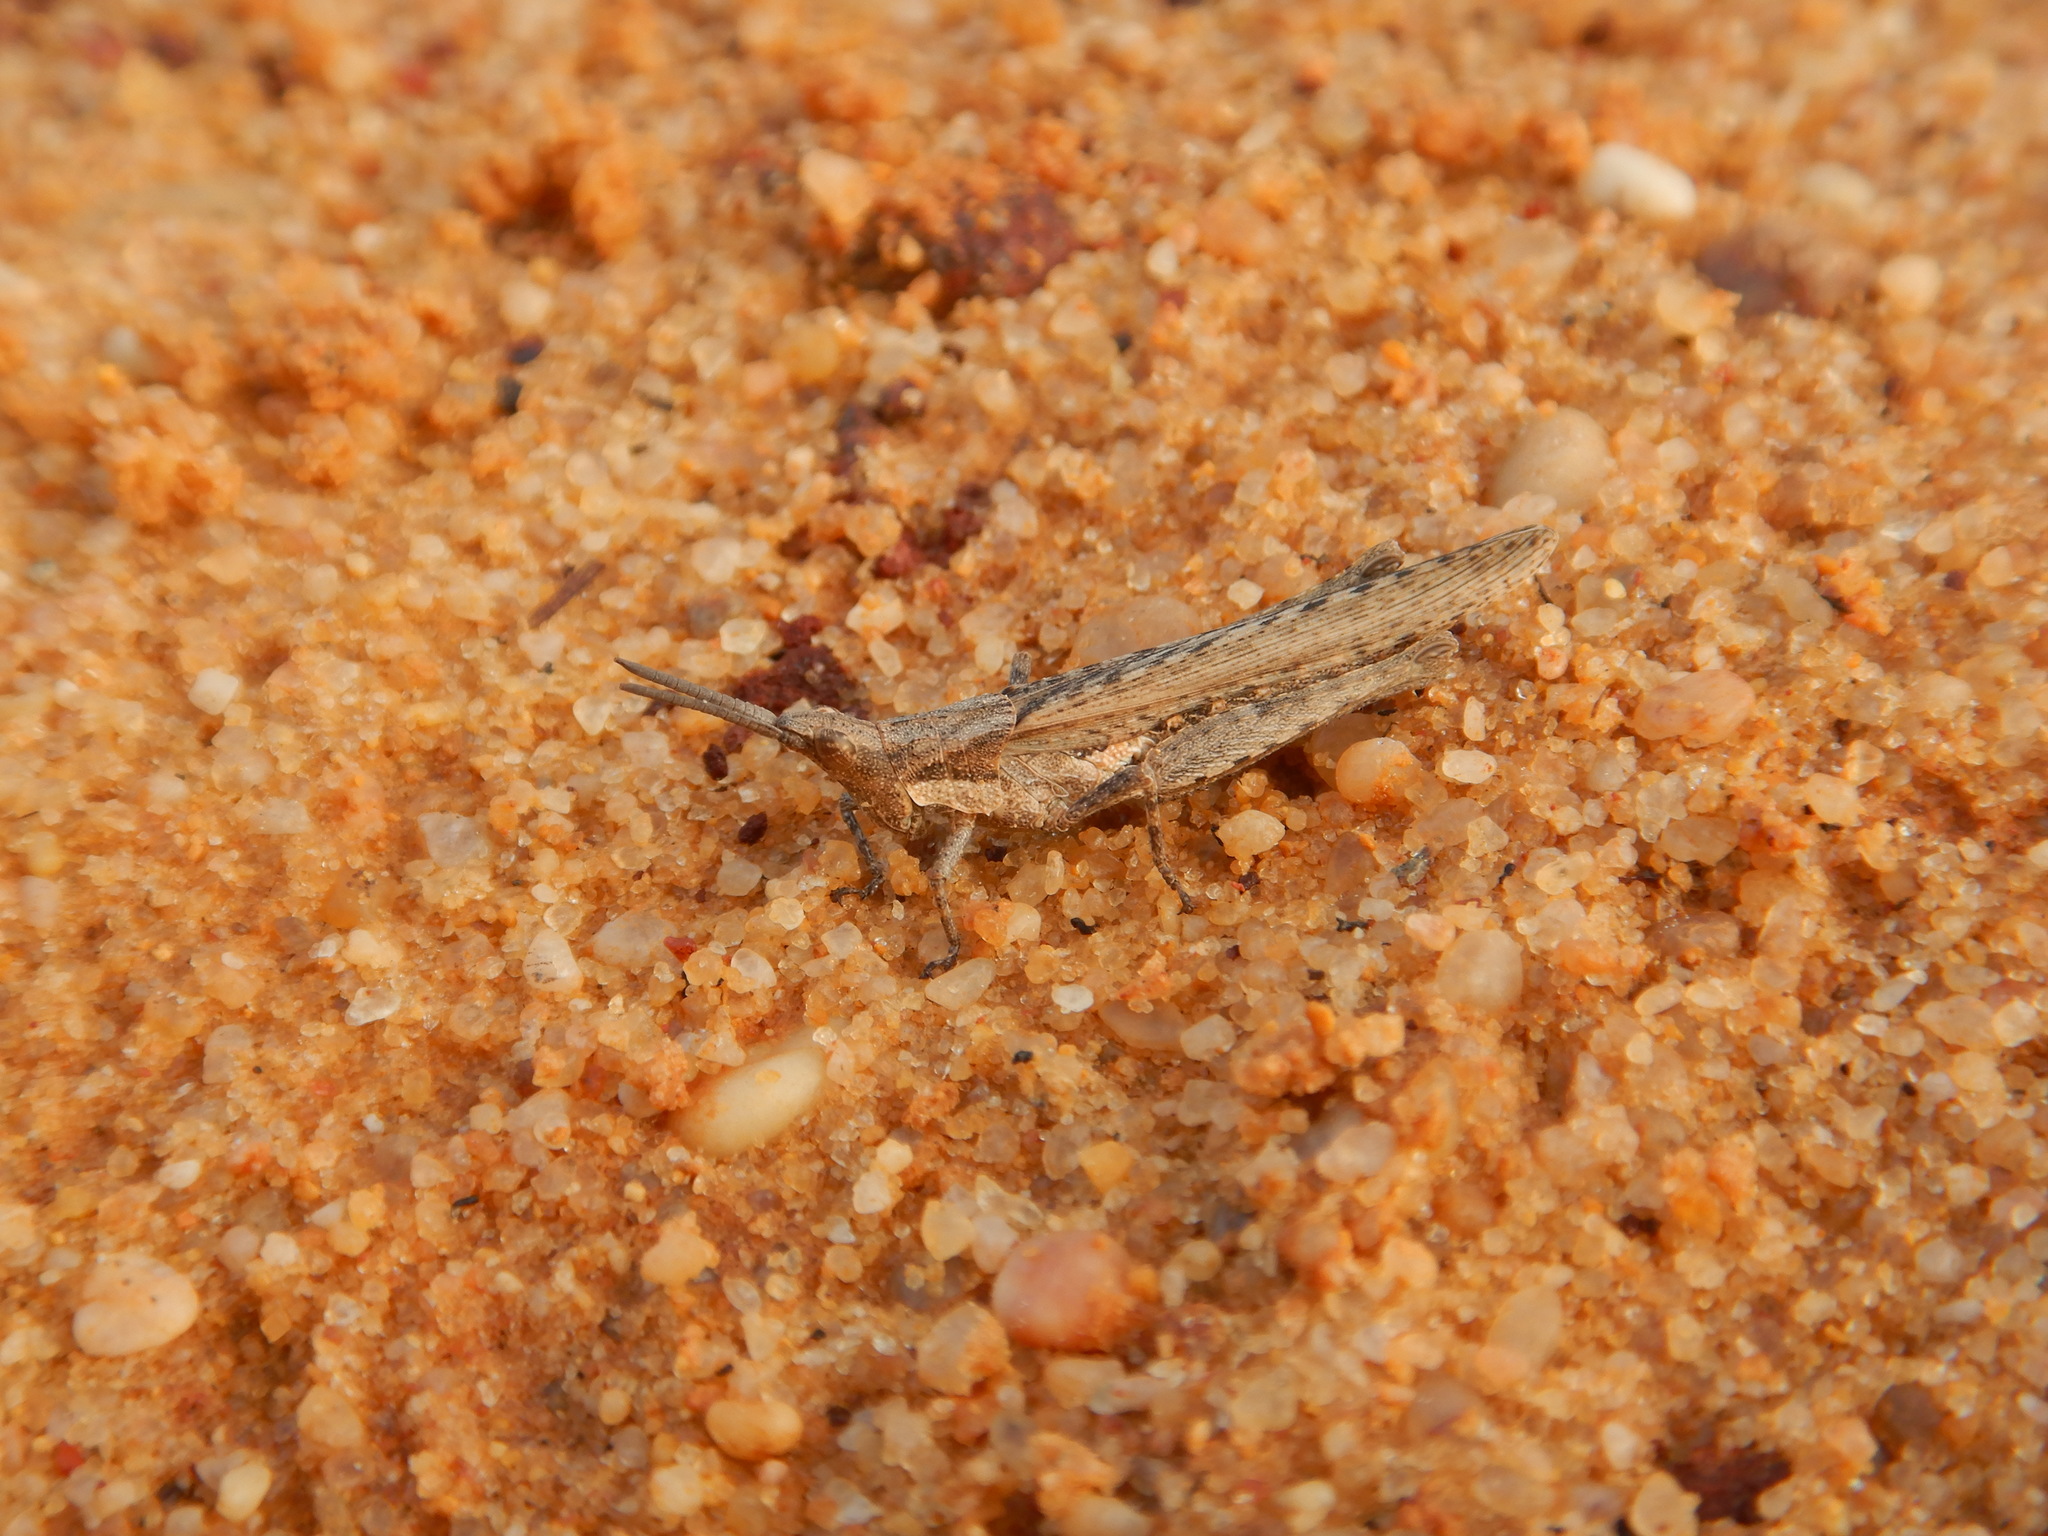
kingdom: Animalia
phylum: Arthropoda
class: Insecta
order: Orthoptera
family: Pyrgomorphidae
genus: Pyrgomorpha
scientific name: Pyrgomorpha conica
